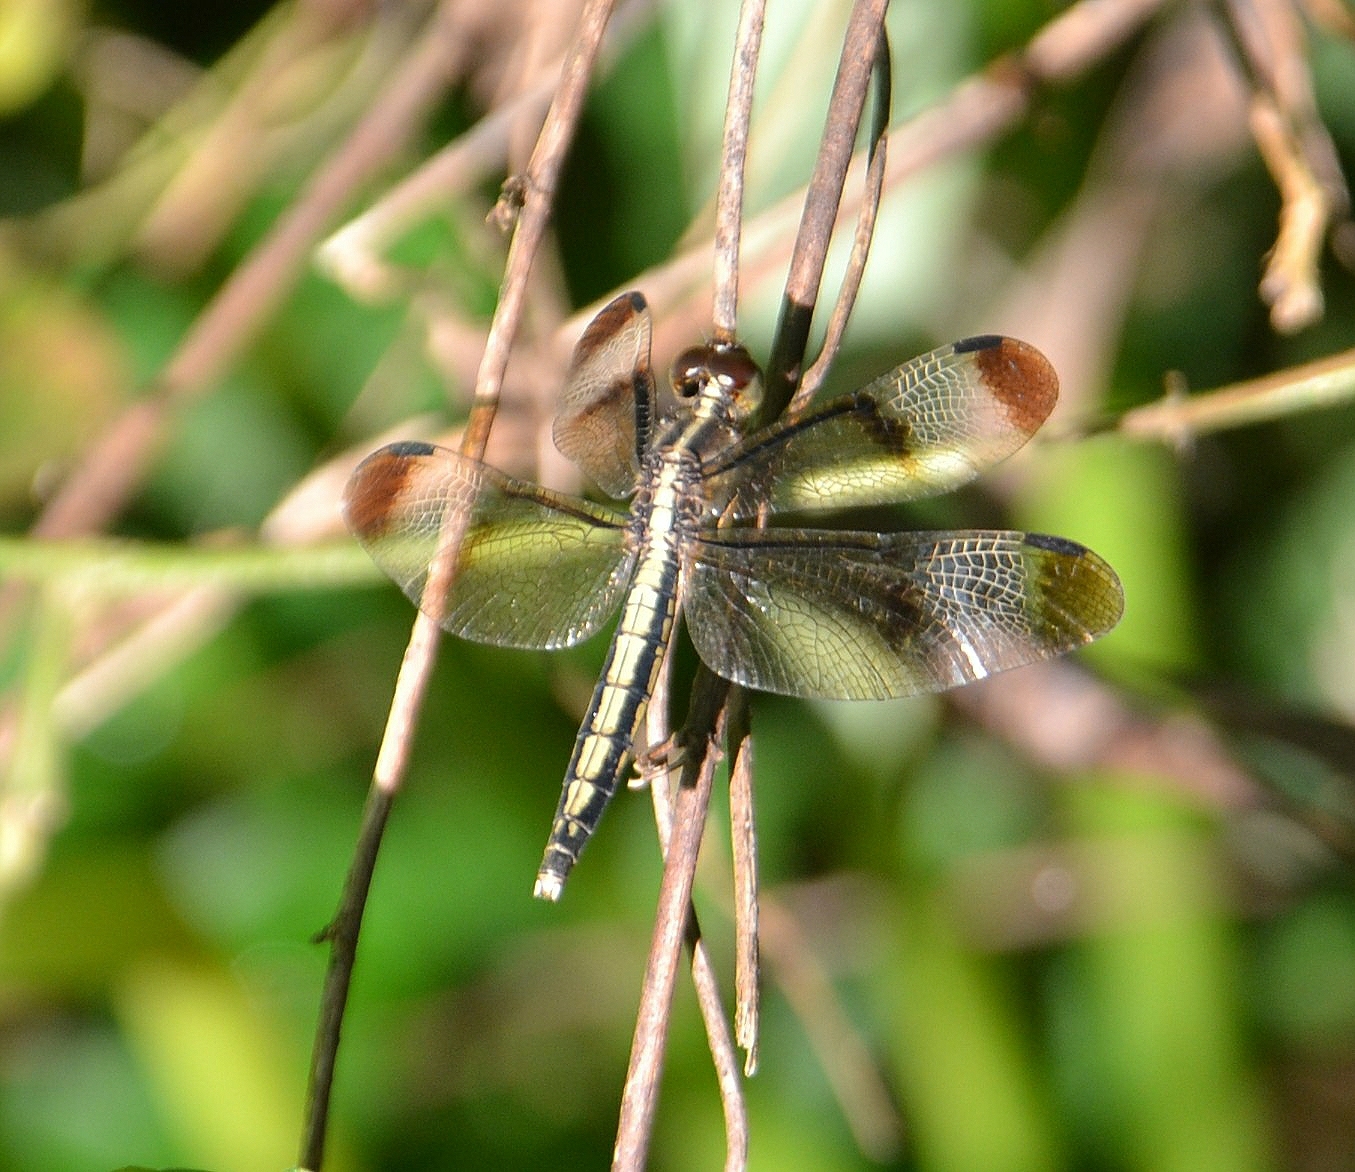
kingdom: Animalia
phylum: Arthropoda
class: Insecta
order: Odonata
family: Libellulidae
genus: Neurothemis
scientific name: Neurothemis tullia
